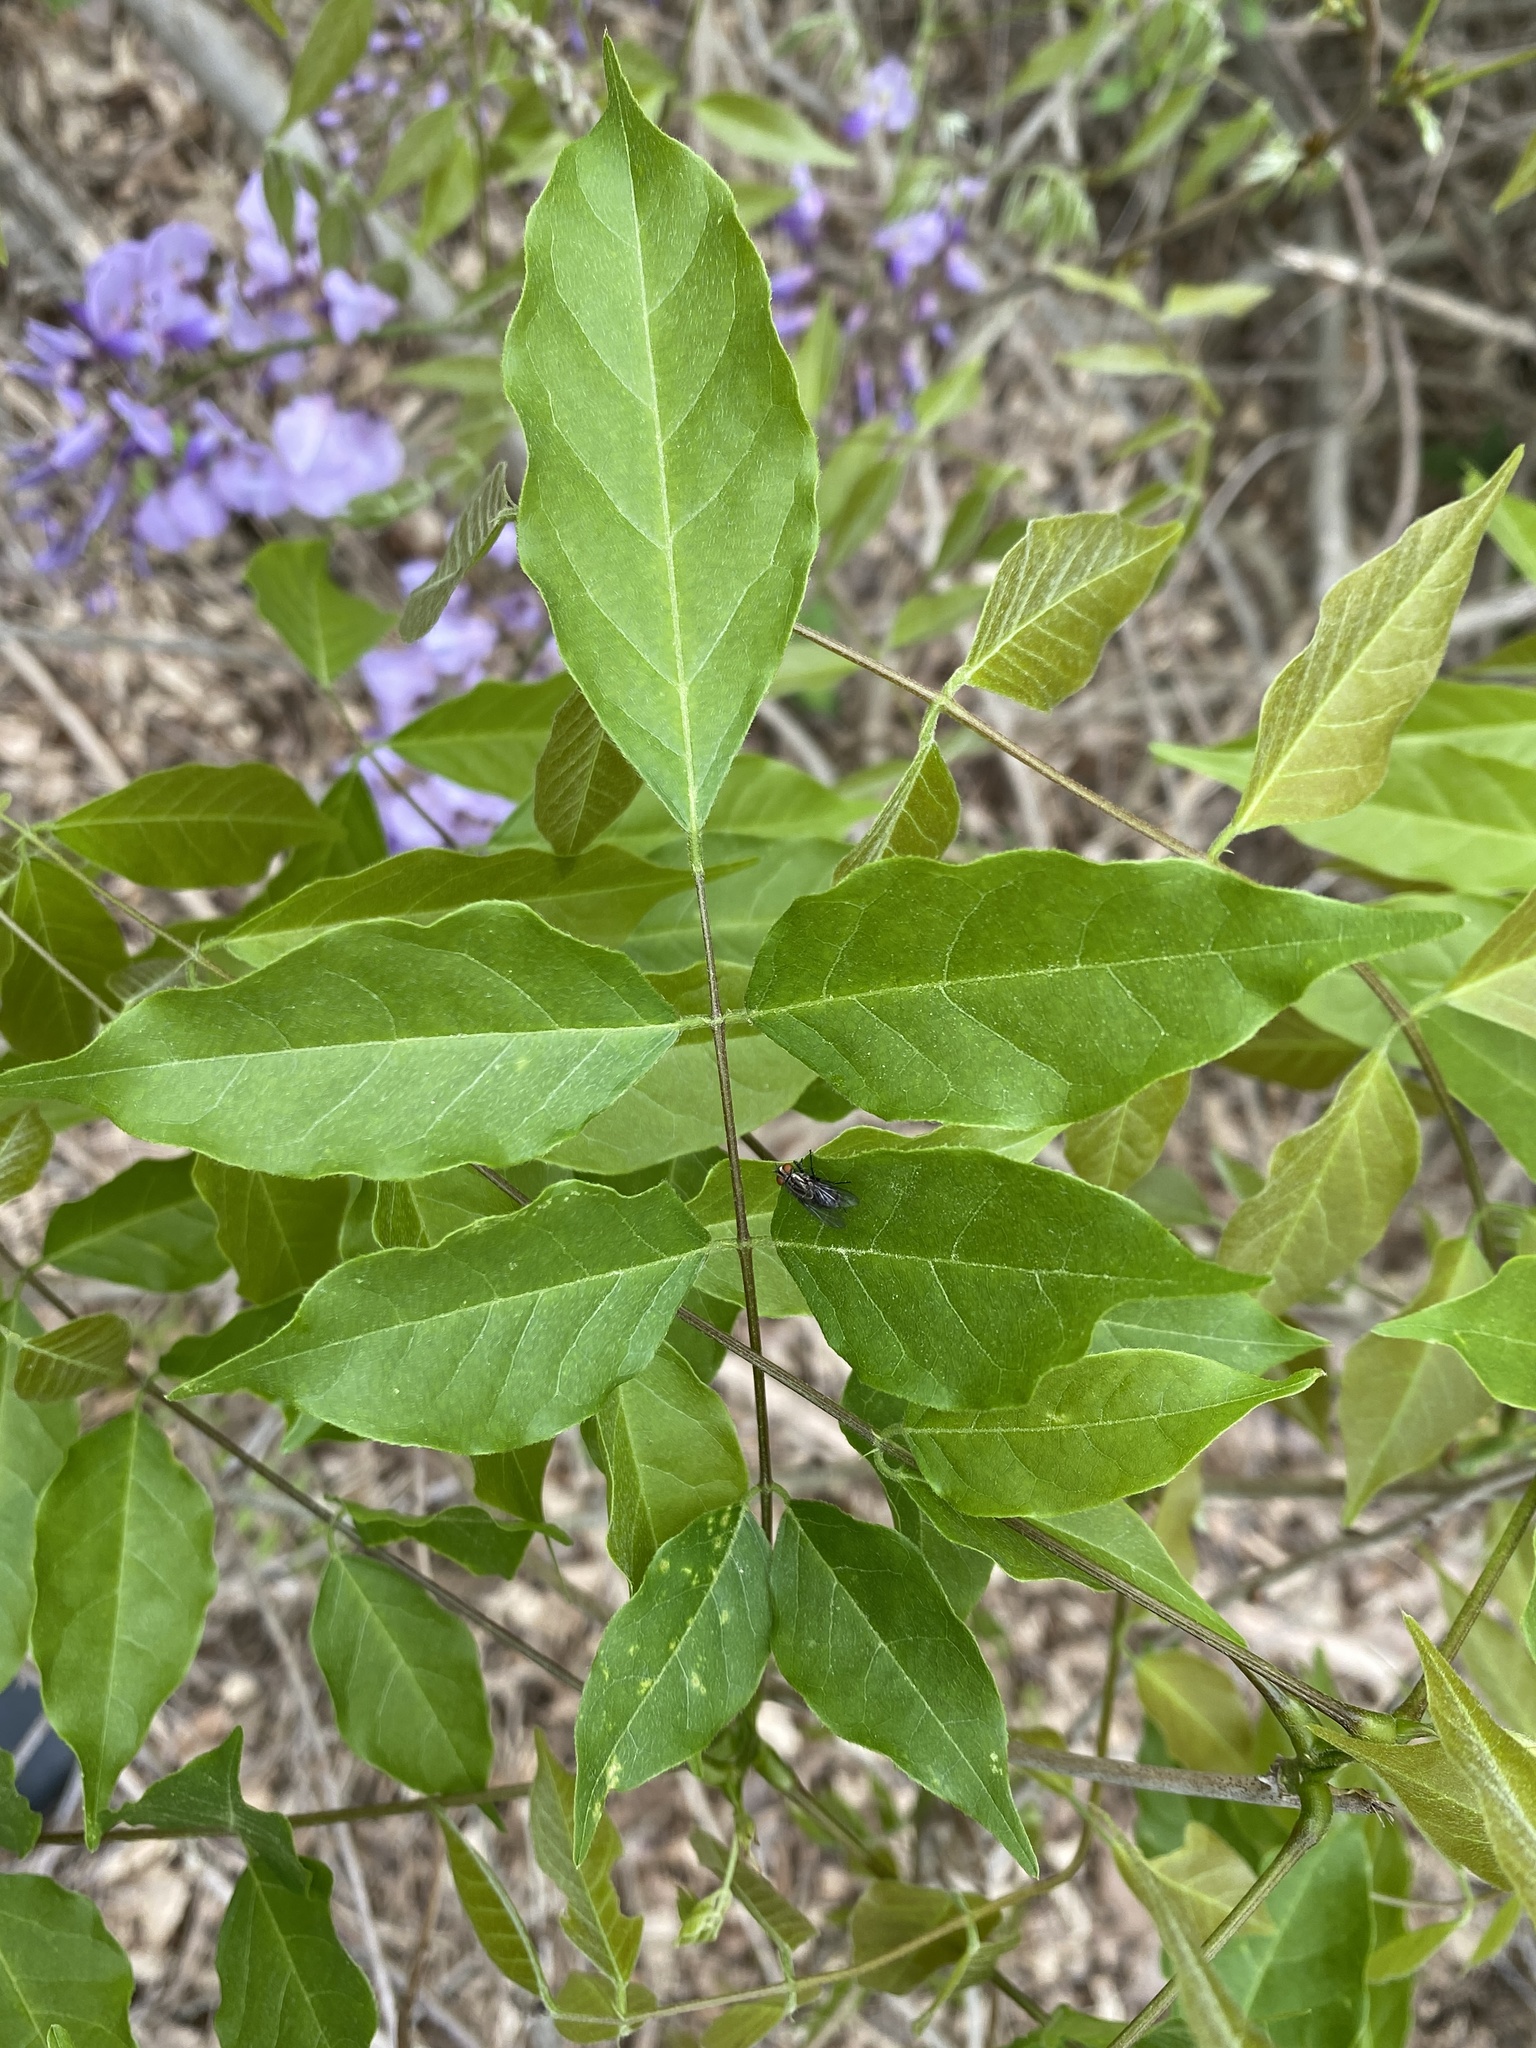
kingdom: Plantae
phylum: Tracheophyta
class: Magnoliopsida
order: Fabales
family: Fabaceae
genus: Wisteria
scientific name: Wisteria sinensis
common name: Chinese wisteria
